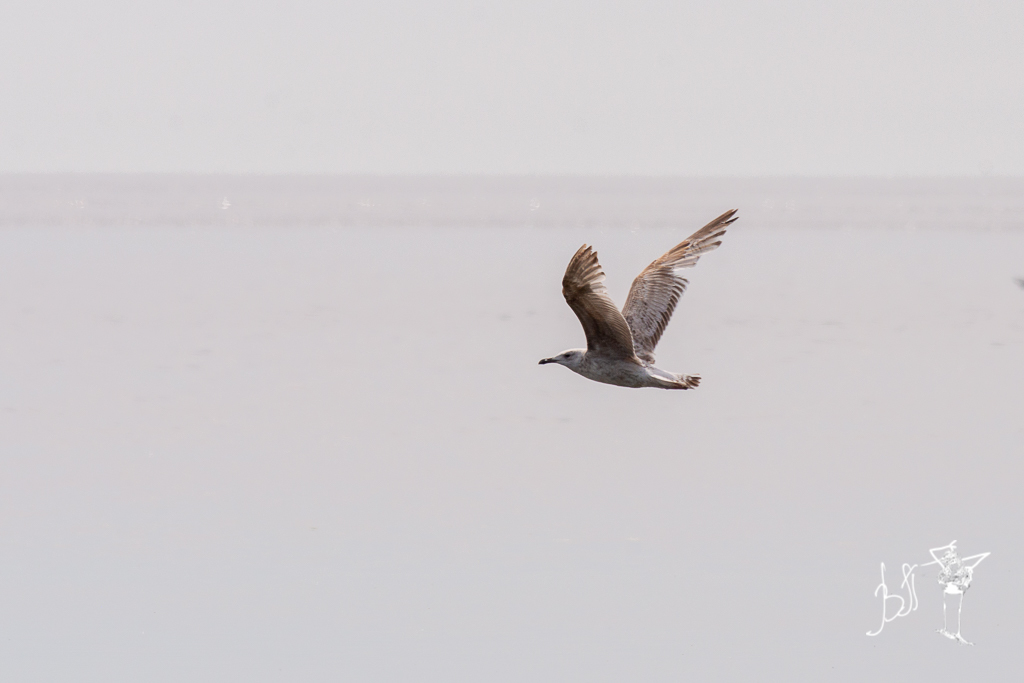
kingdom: Animalia
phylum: Chordata
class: Aves
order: Charadriiformes
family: Laridae
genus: Larus
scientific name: Larus argentatus
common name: Herring gull
